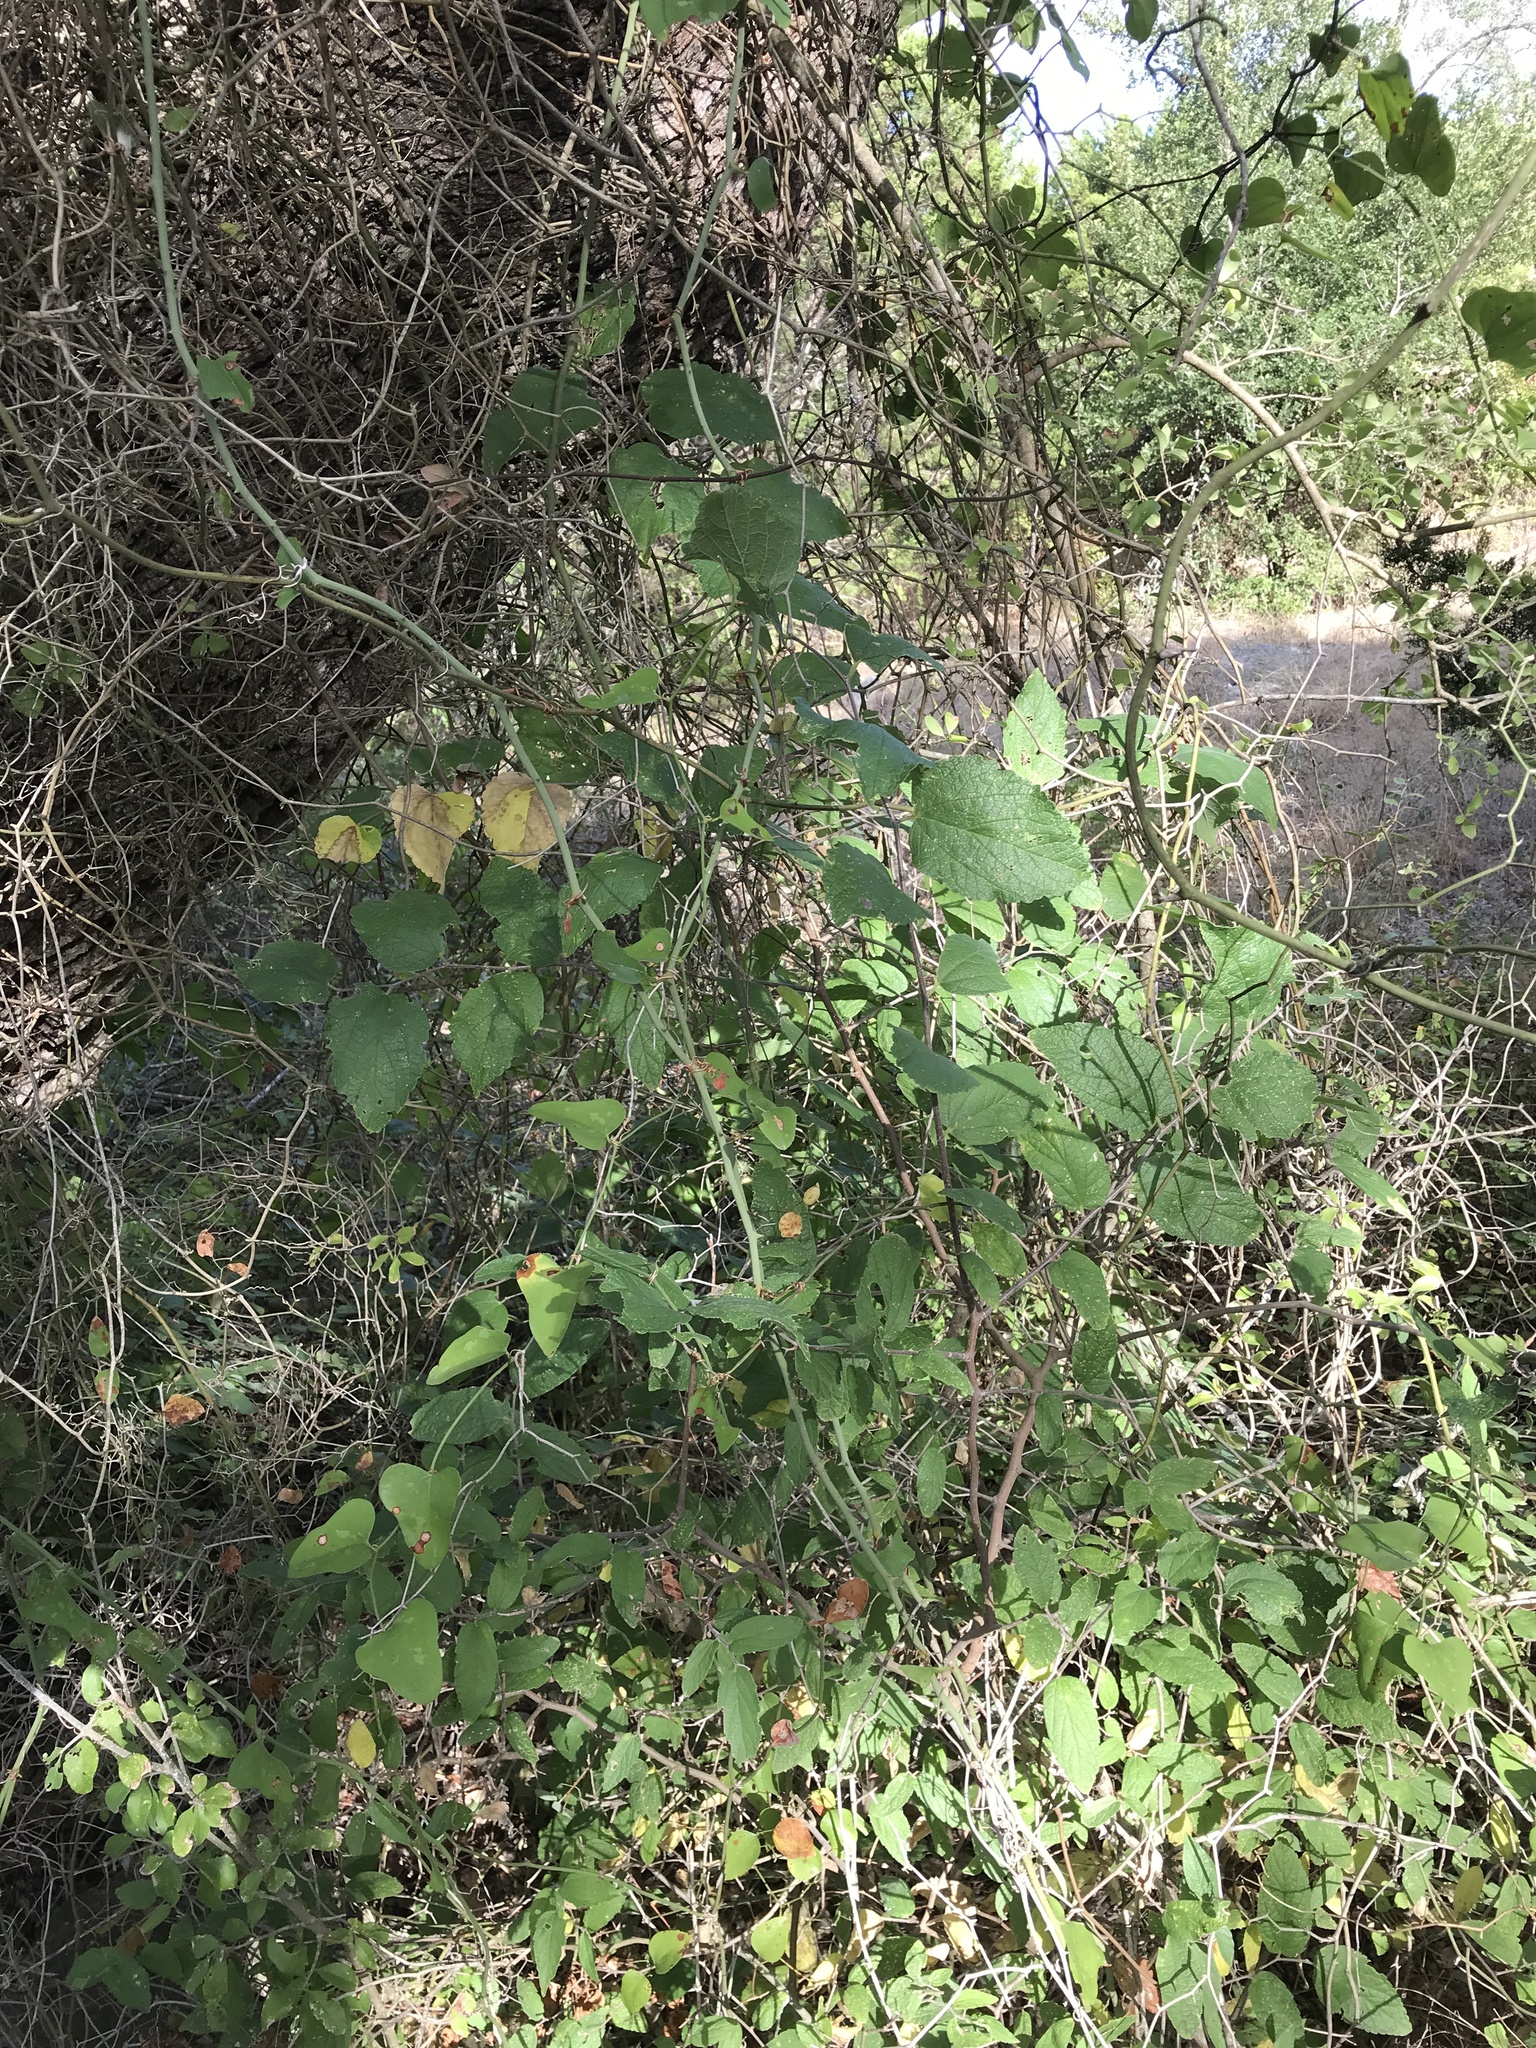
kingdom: Plantae
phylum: Tracheophyta
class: Magnoliopsida
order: Rosales
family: Cannabaceae
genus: Celtis
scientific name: Celtis reticulata
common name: Netleaf hackberry
